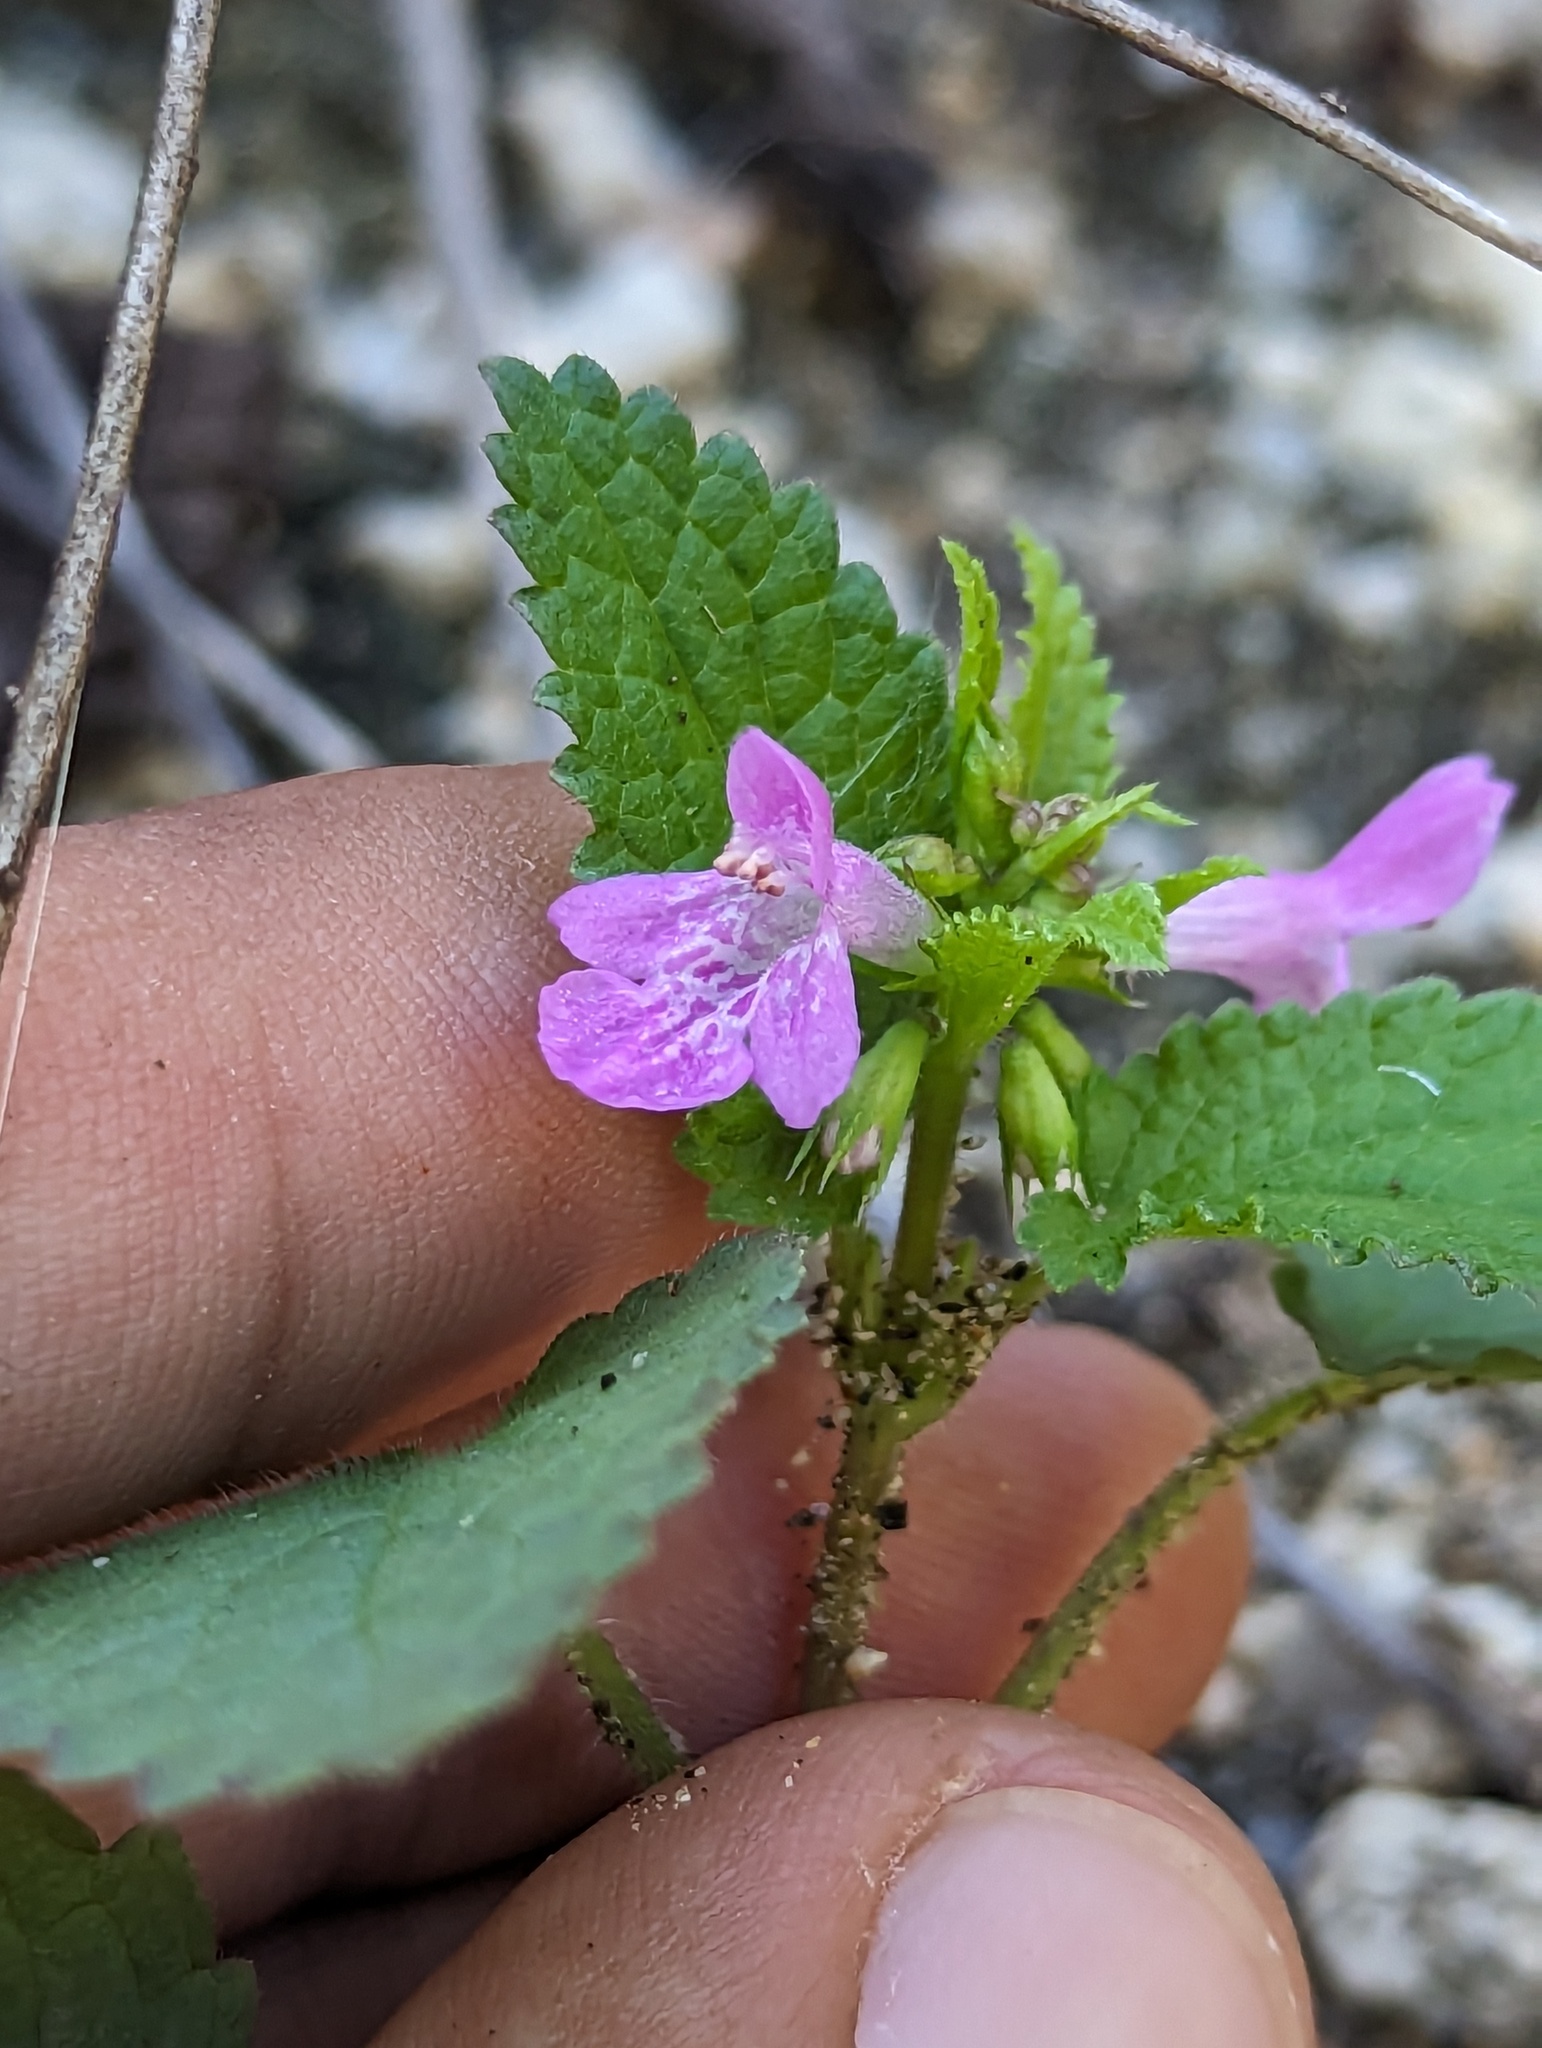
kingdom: Plantae
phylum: Tracheophyta
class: Magnoliopsida
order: Lamiales
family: Lamiaceae
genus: Stachys
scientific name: Stachys tenerrima
